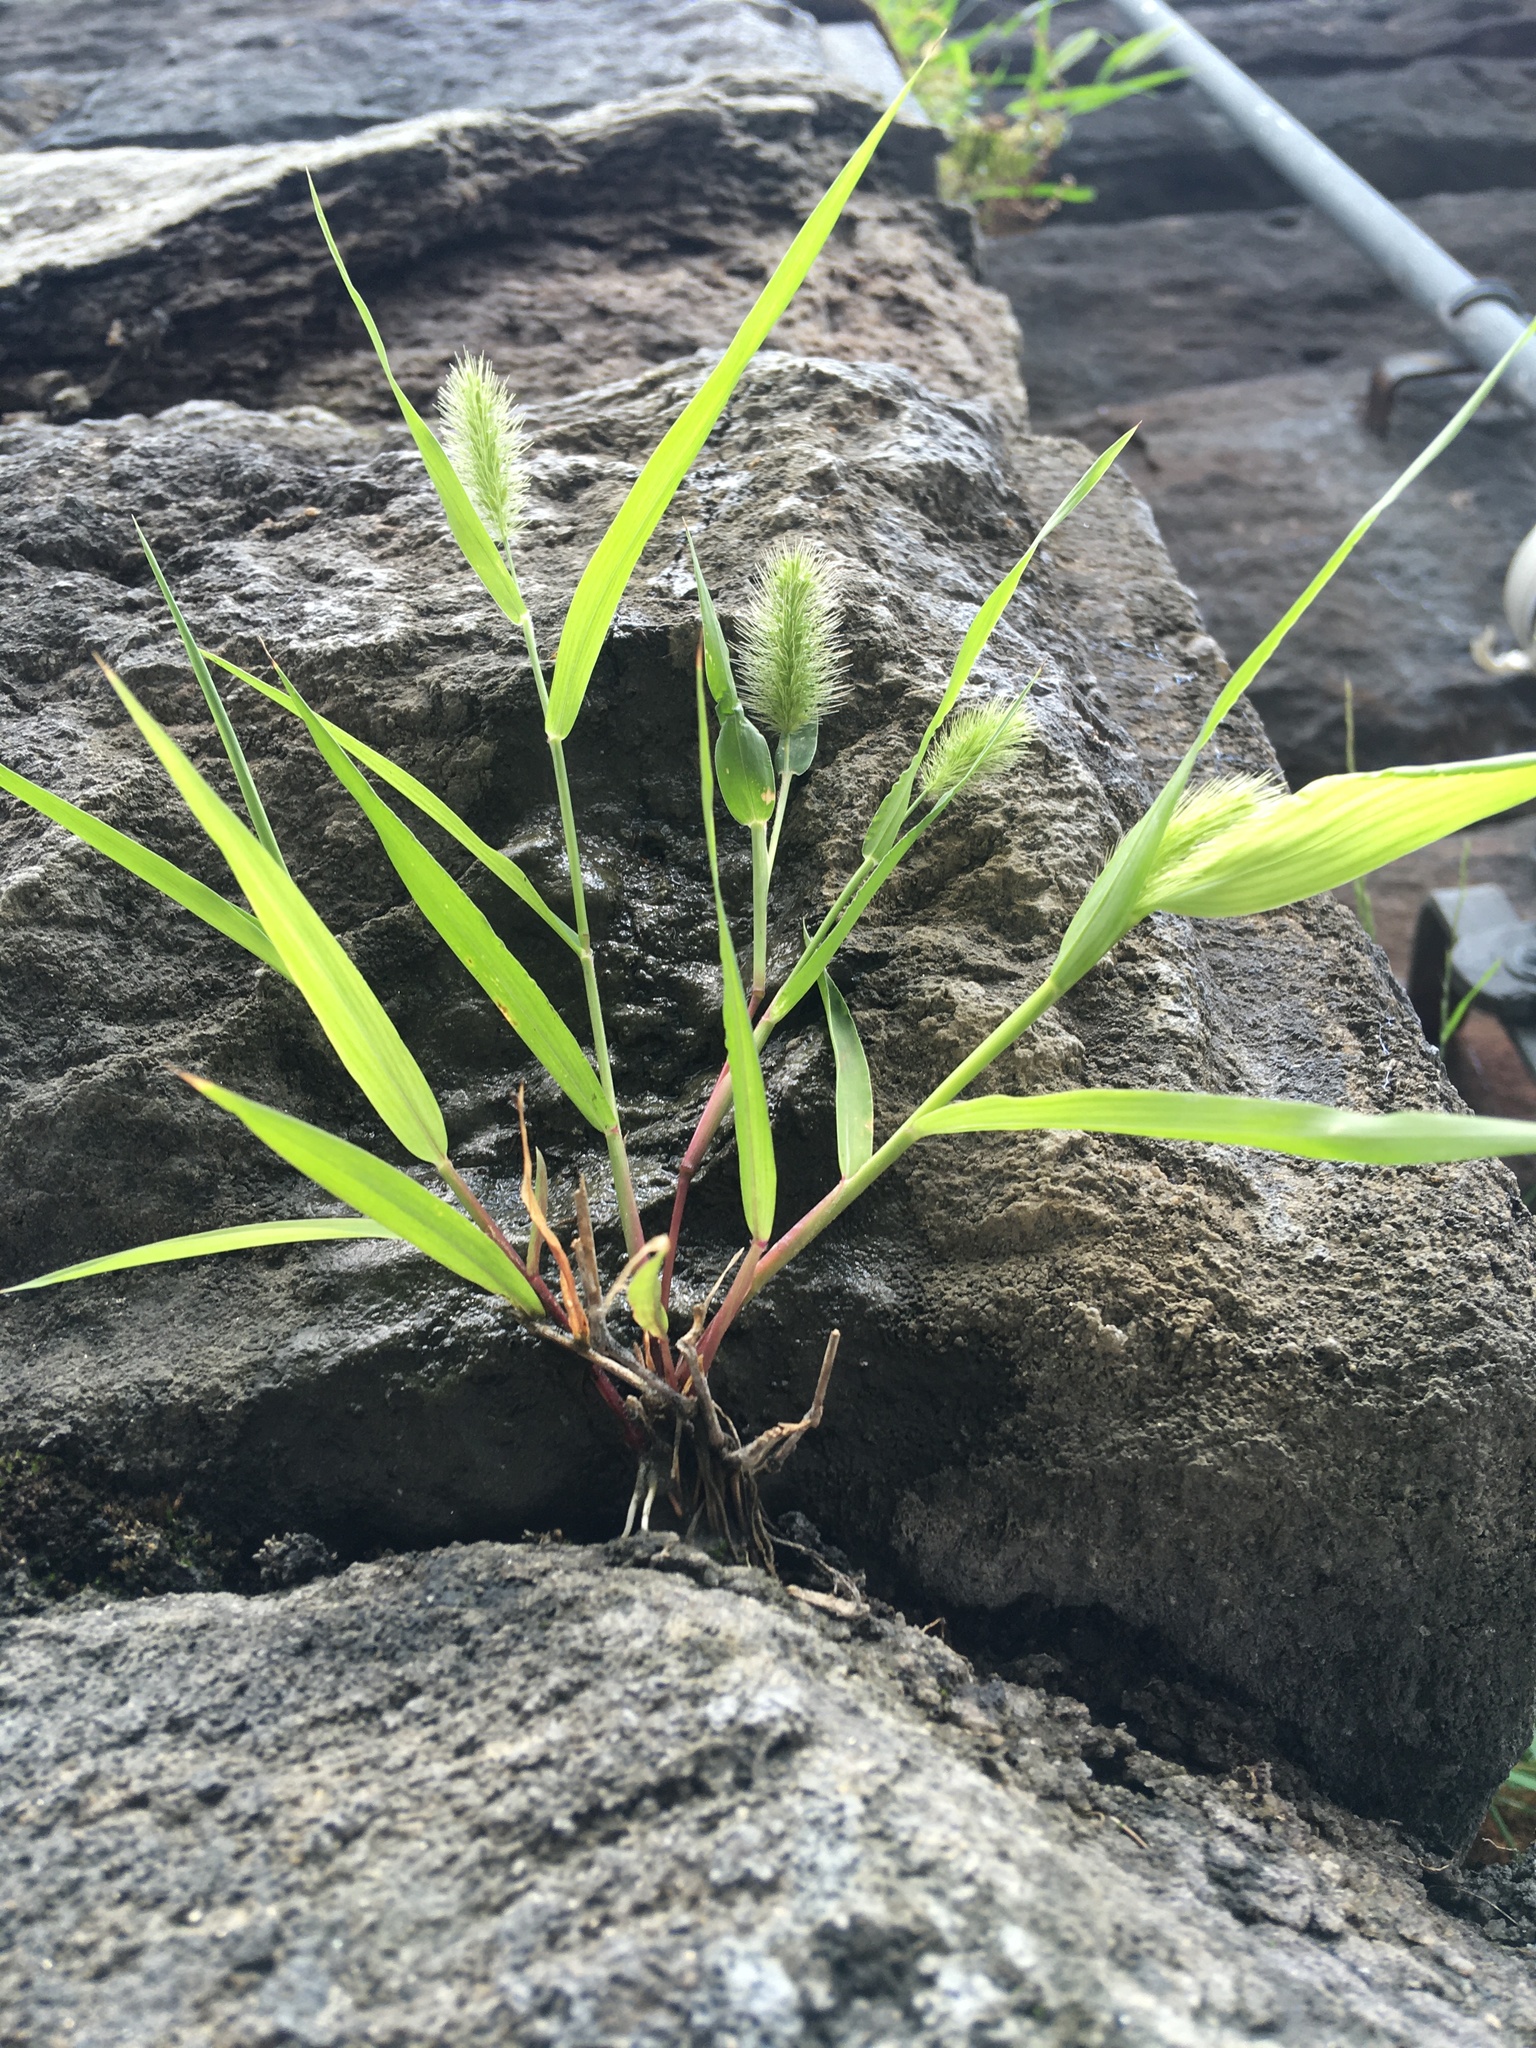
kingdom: Plantae
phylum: Tracheophyta
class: Liliopsida
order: Poales
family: Poaceae
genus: Setaria
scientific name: Setaria viridis
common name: Green bristlegrass
